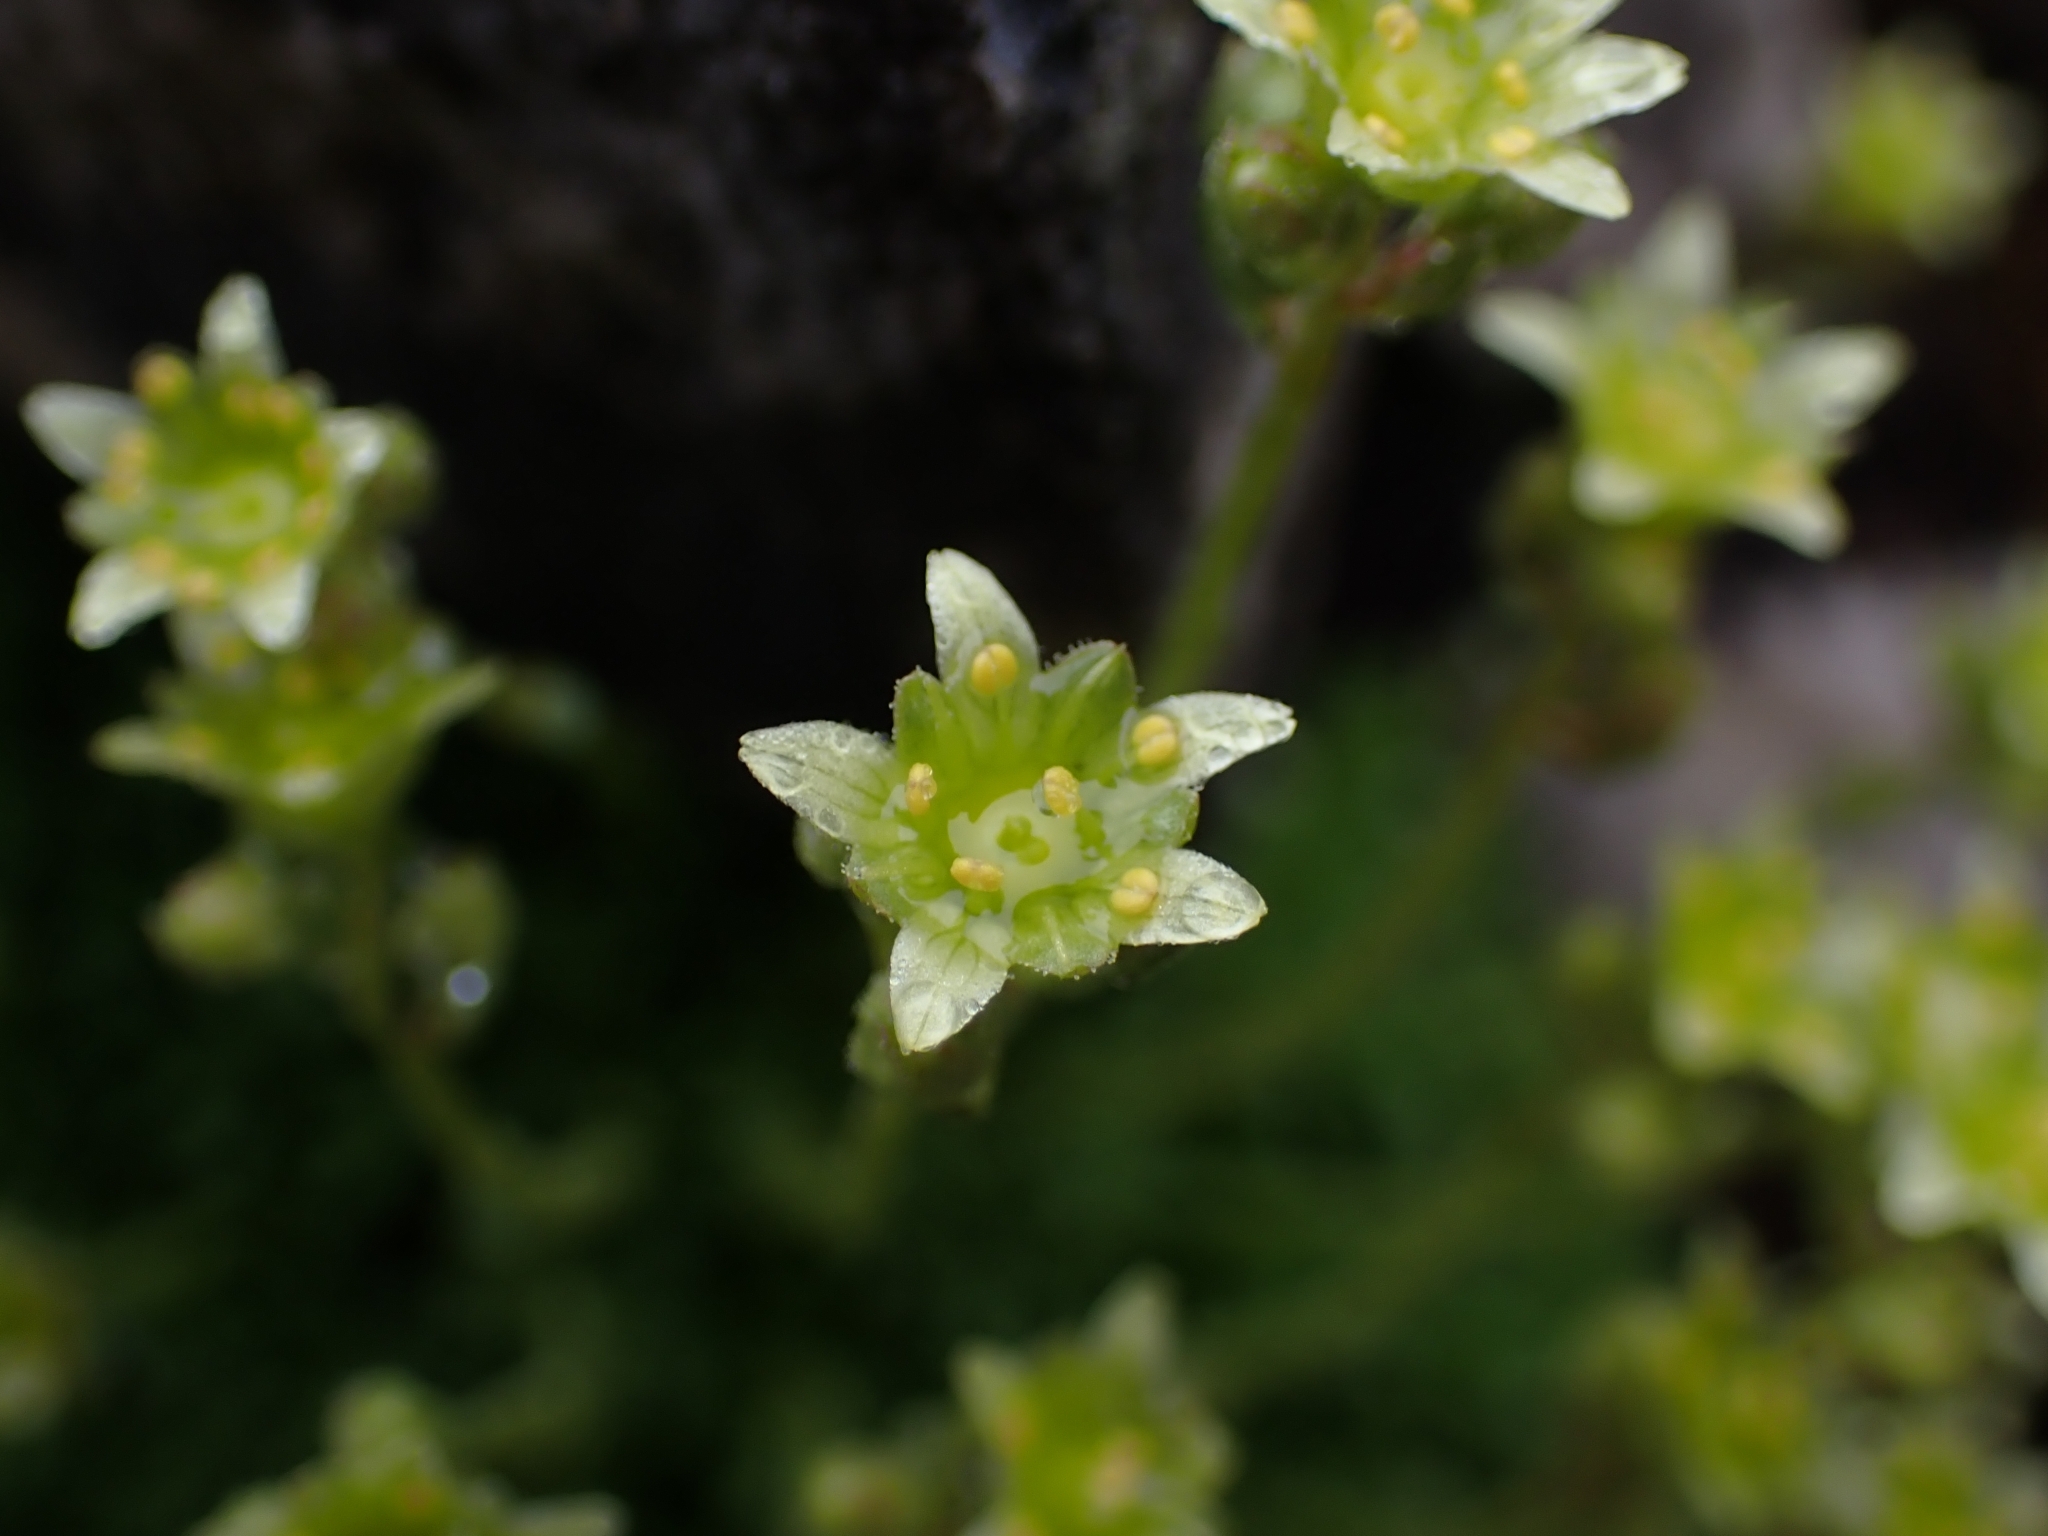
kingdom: Plantae
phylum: Tracheophyta
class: Magnoliopsida
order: Saxifragales
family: Saxifragaceae
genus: Saxifraga
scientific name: Saxifraga moschata
